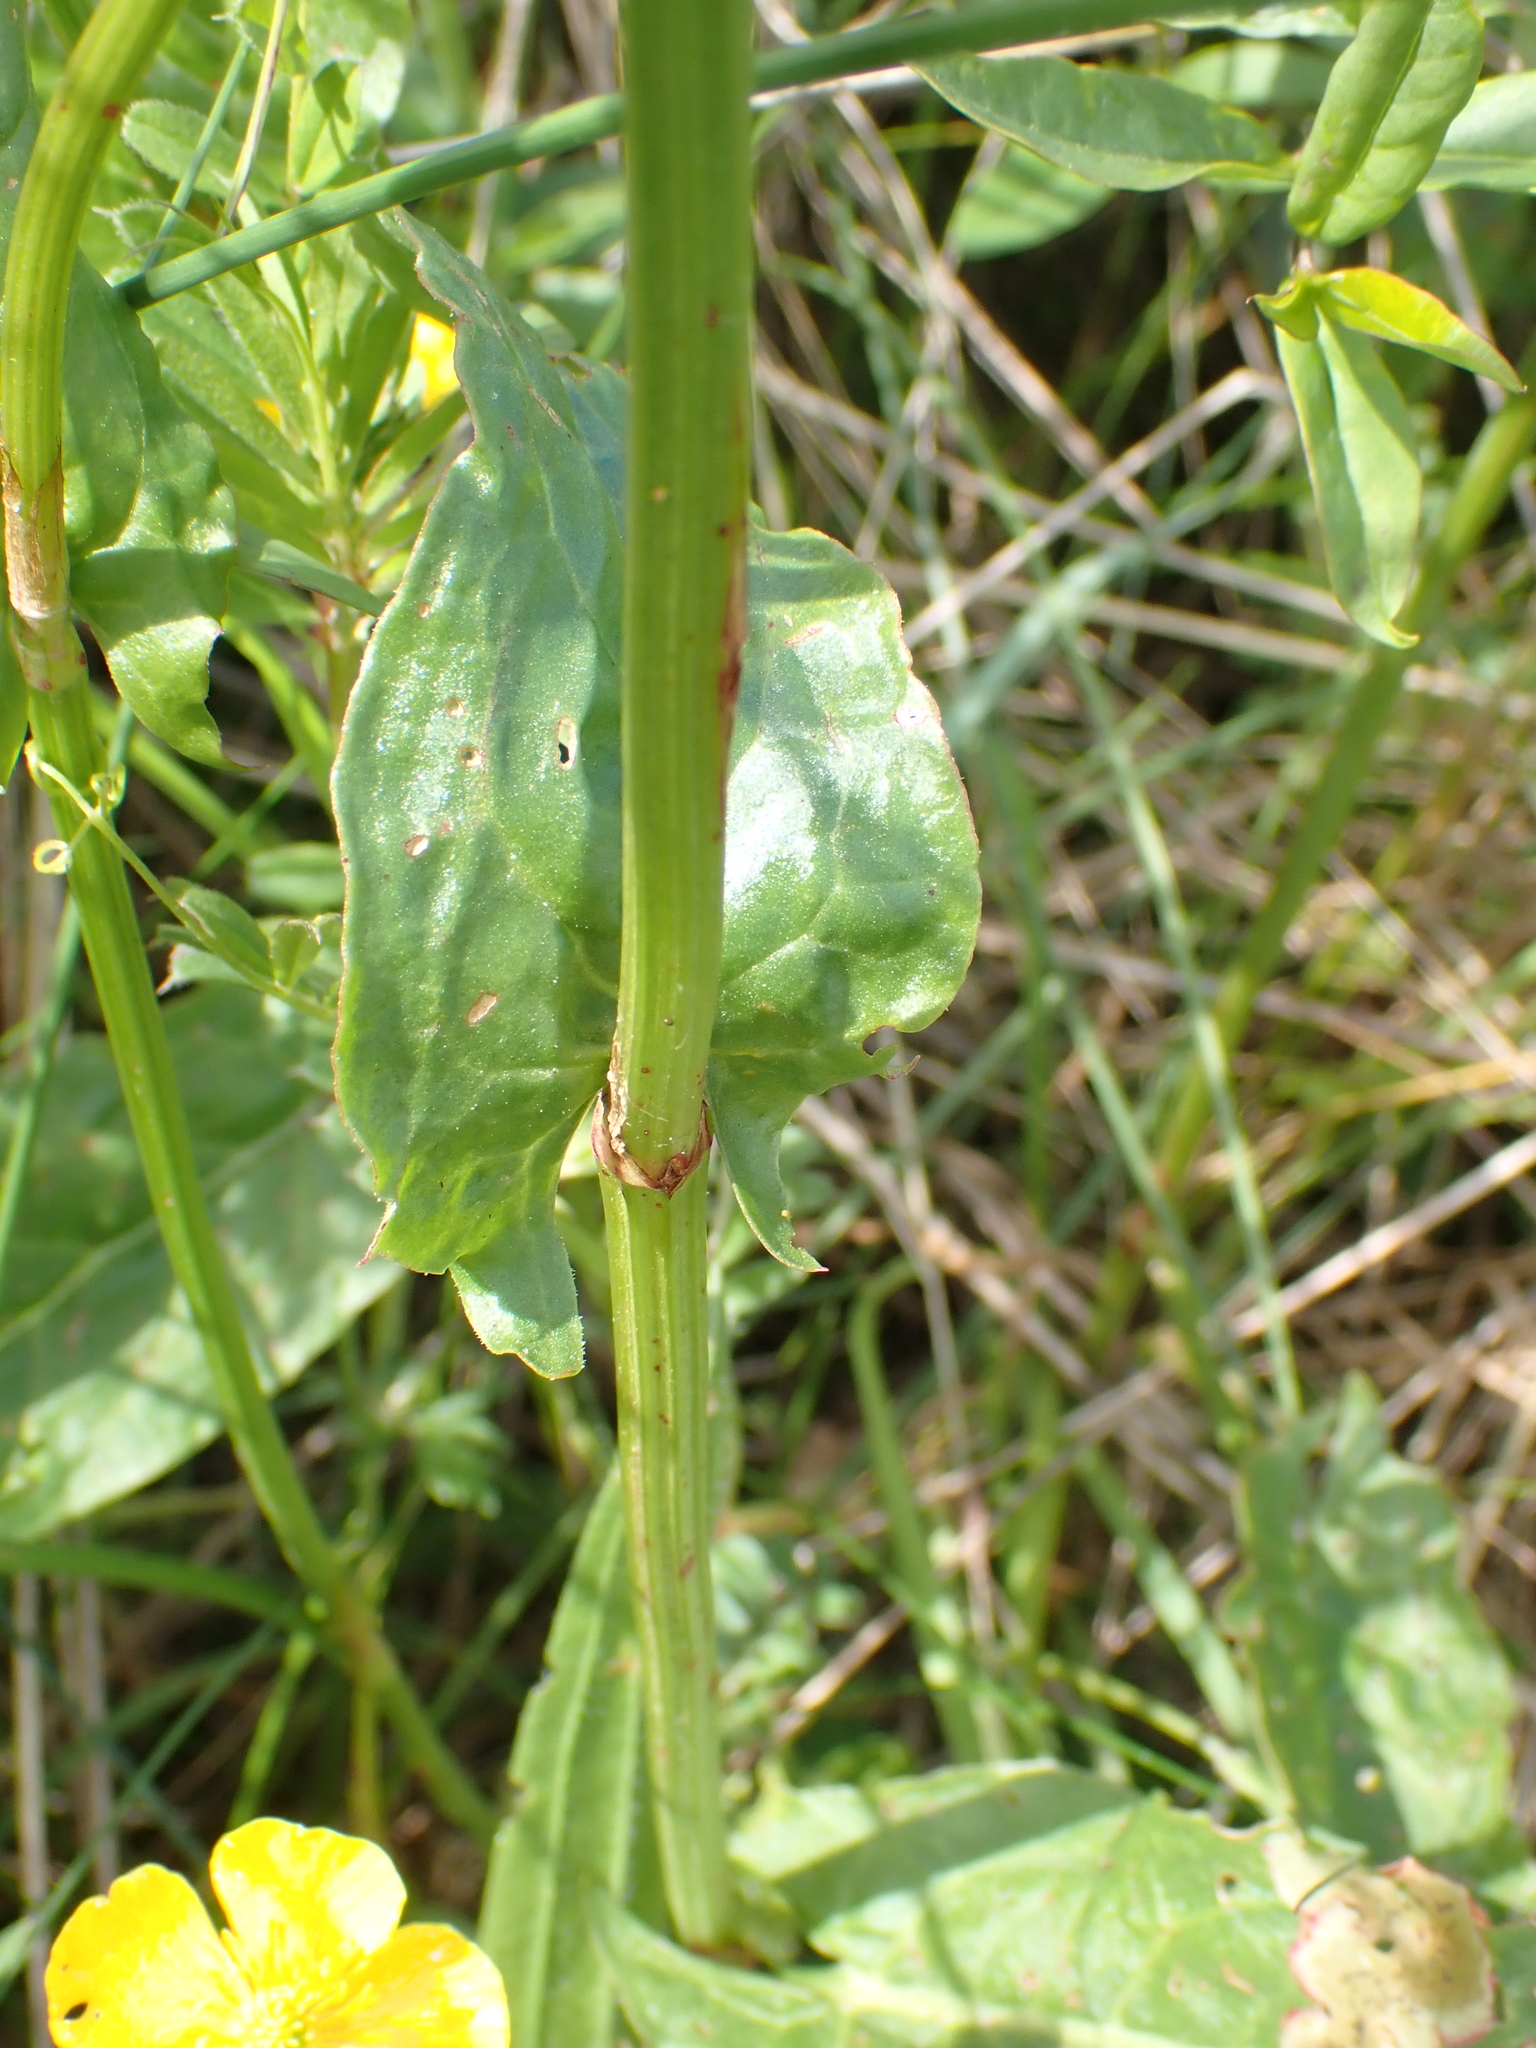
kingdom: Plantae
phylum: Tracheophyta
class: Magnoliopsida
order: Caryophyllales
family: Polygonaceae
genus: Rumex
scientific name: Rumex acetosa
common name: Garden sorrel
